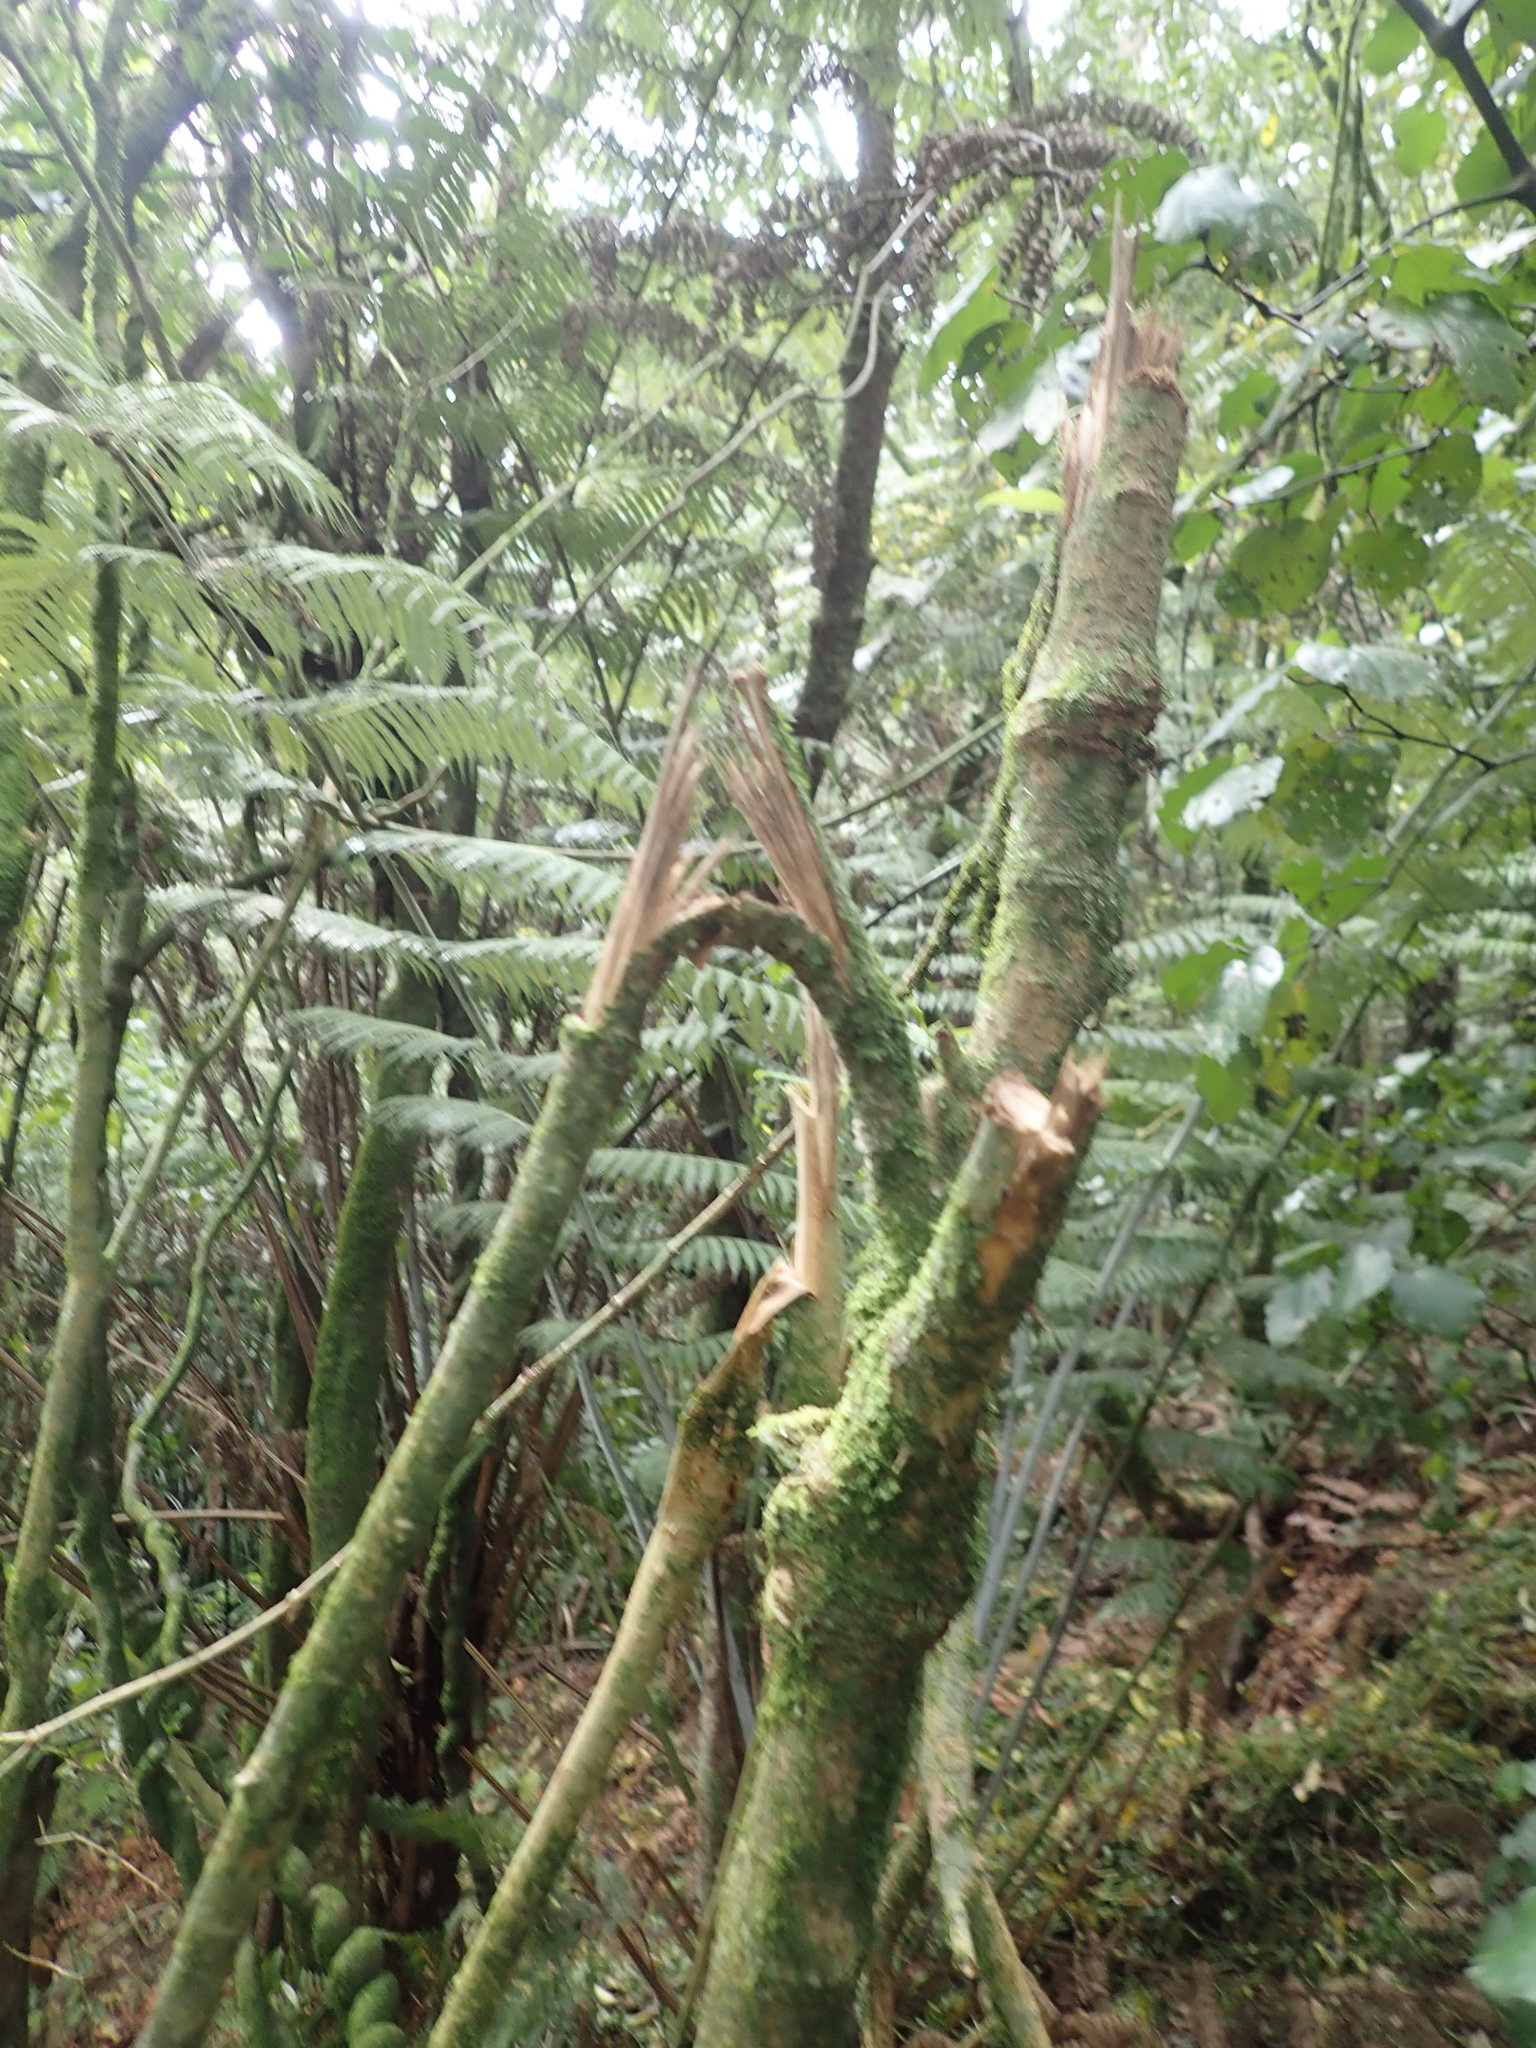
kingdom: Plantae
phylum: Tracheophyta
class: Magnoliopsida
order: Lamiales
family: Oleaceae
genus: Ligustrum
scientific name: Ligustrum lucidum
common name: Glossy privet
